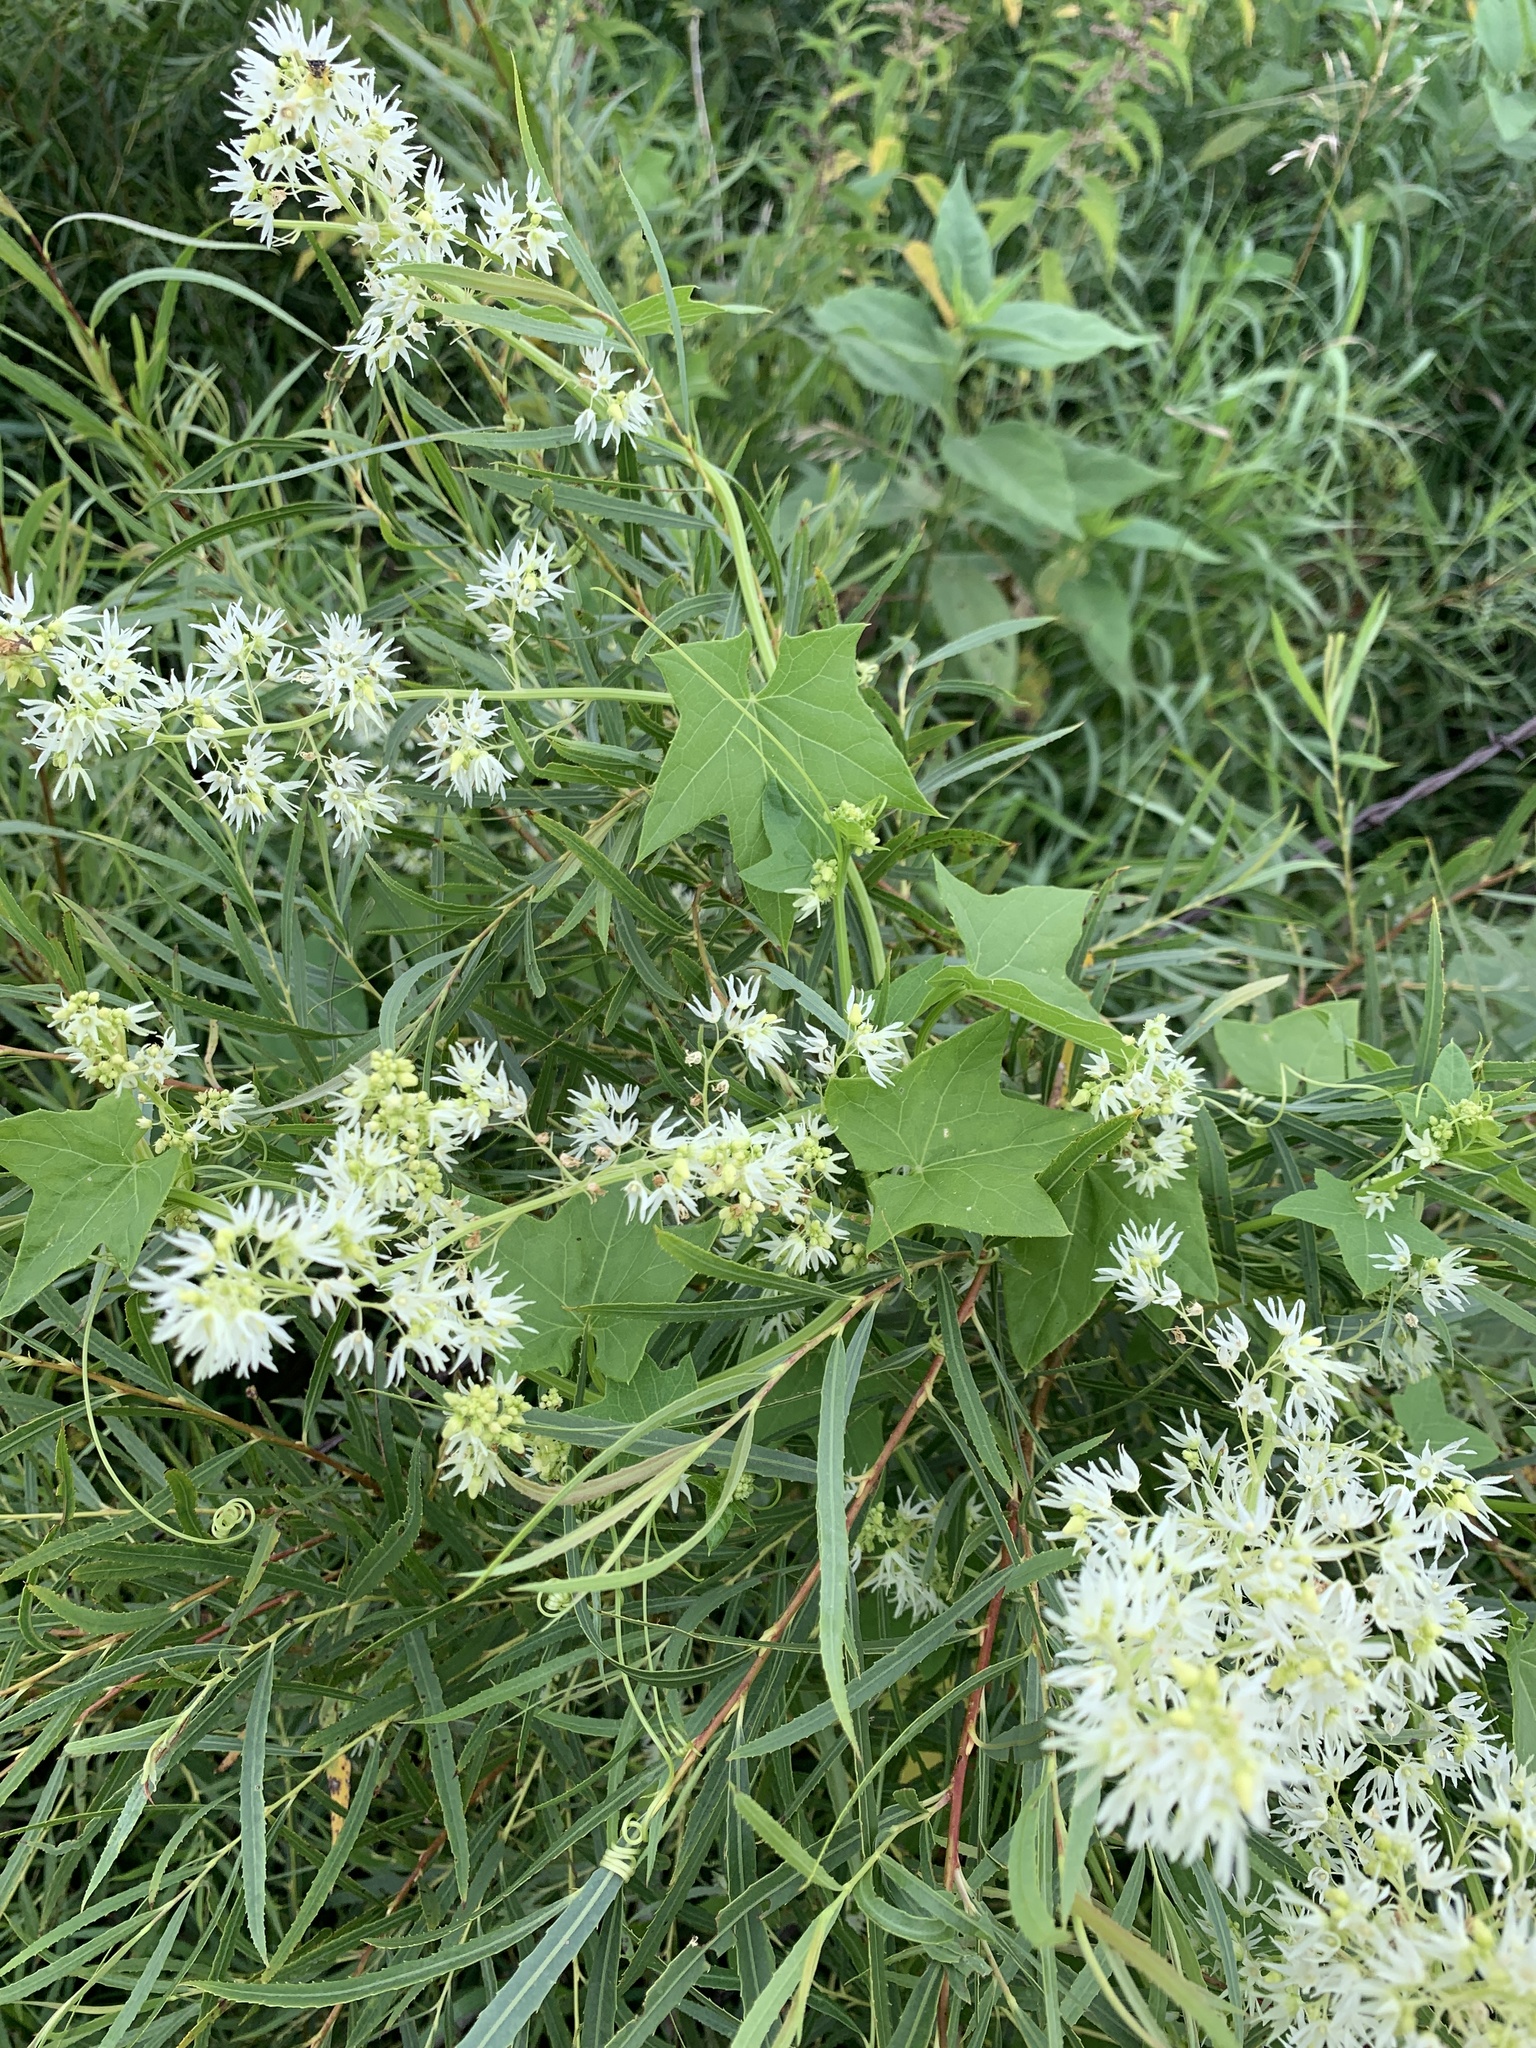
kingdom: Plantae
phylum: Tracheophyta
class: Magnoliopsida
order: Cucurbitales
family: Cucurbitaceae
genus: Echinocystis
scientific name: Echinocystis lobata
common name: Wild cucumber
